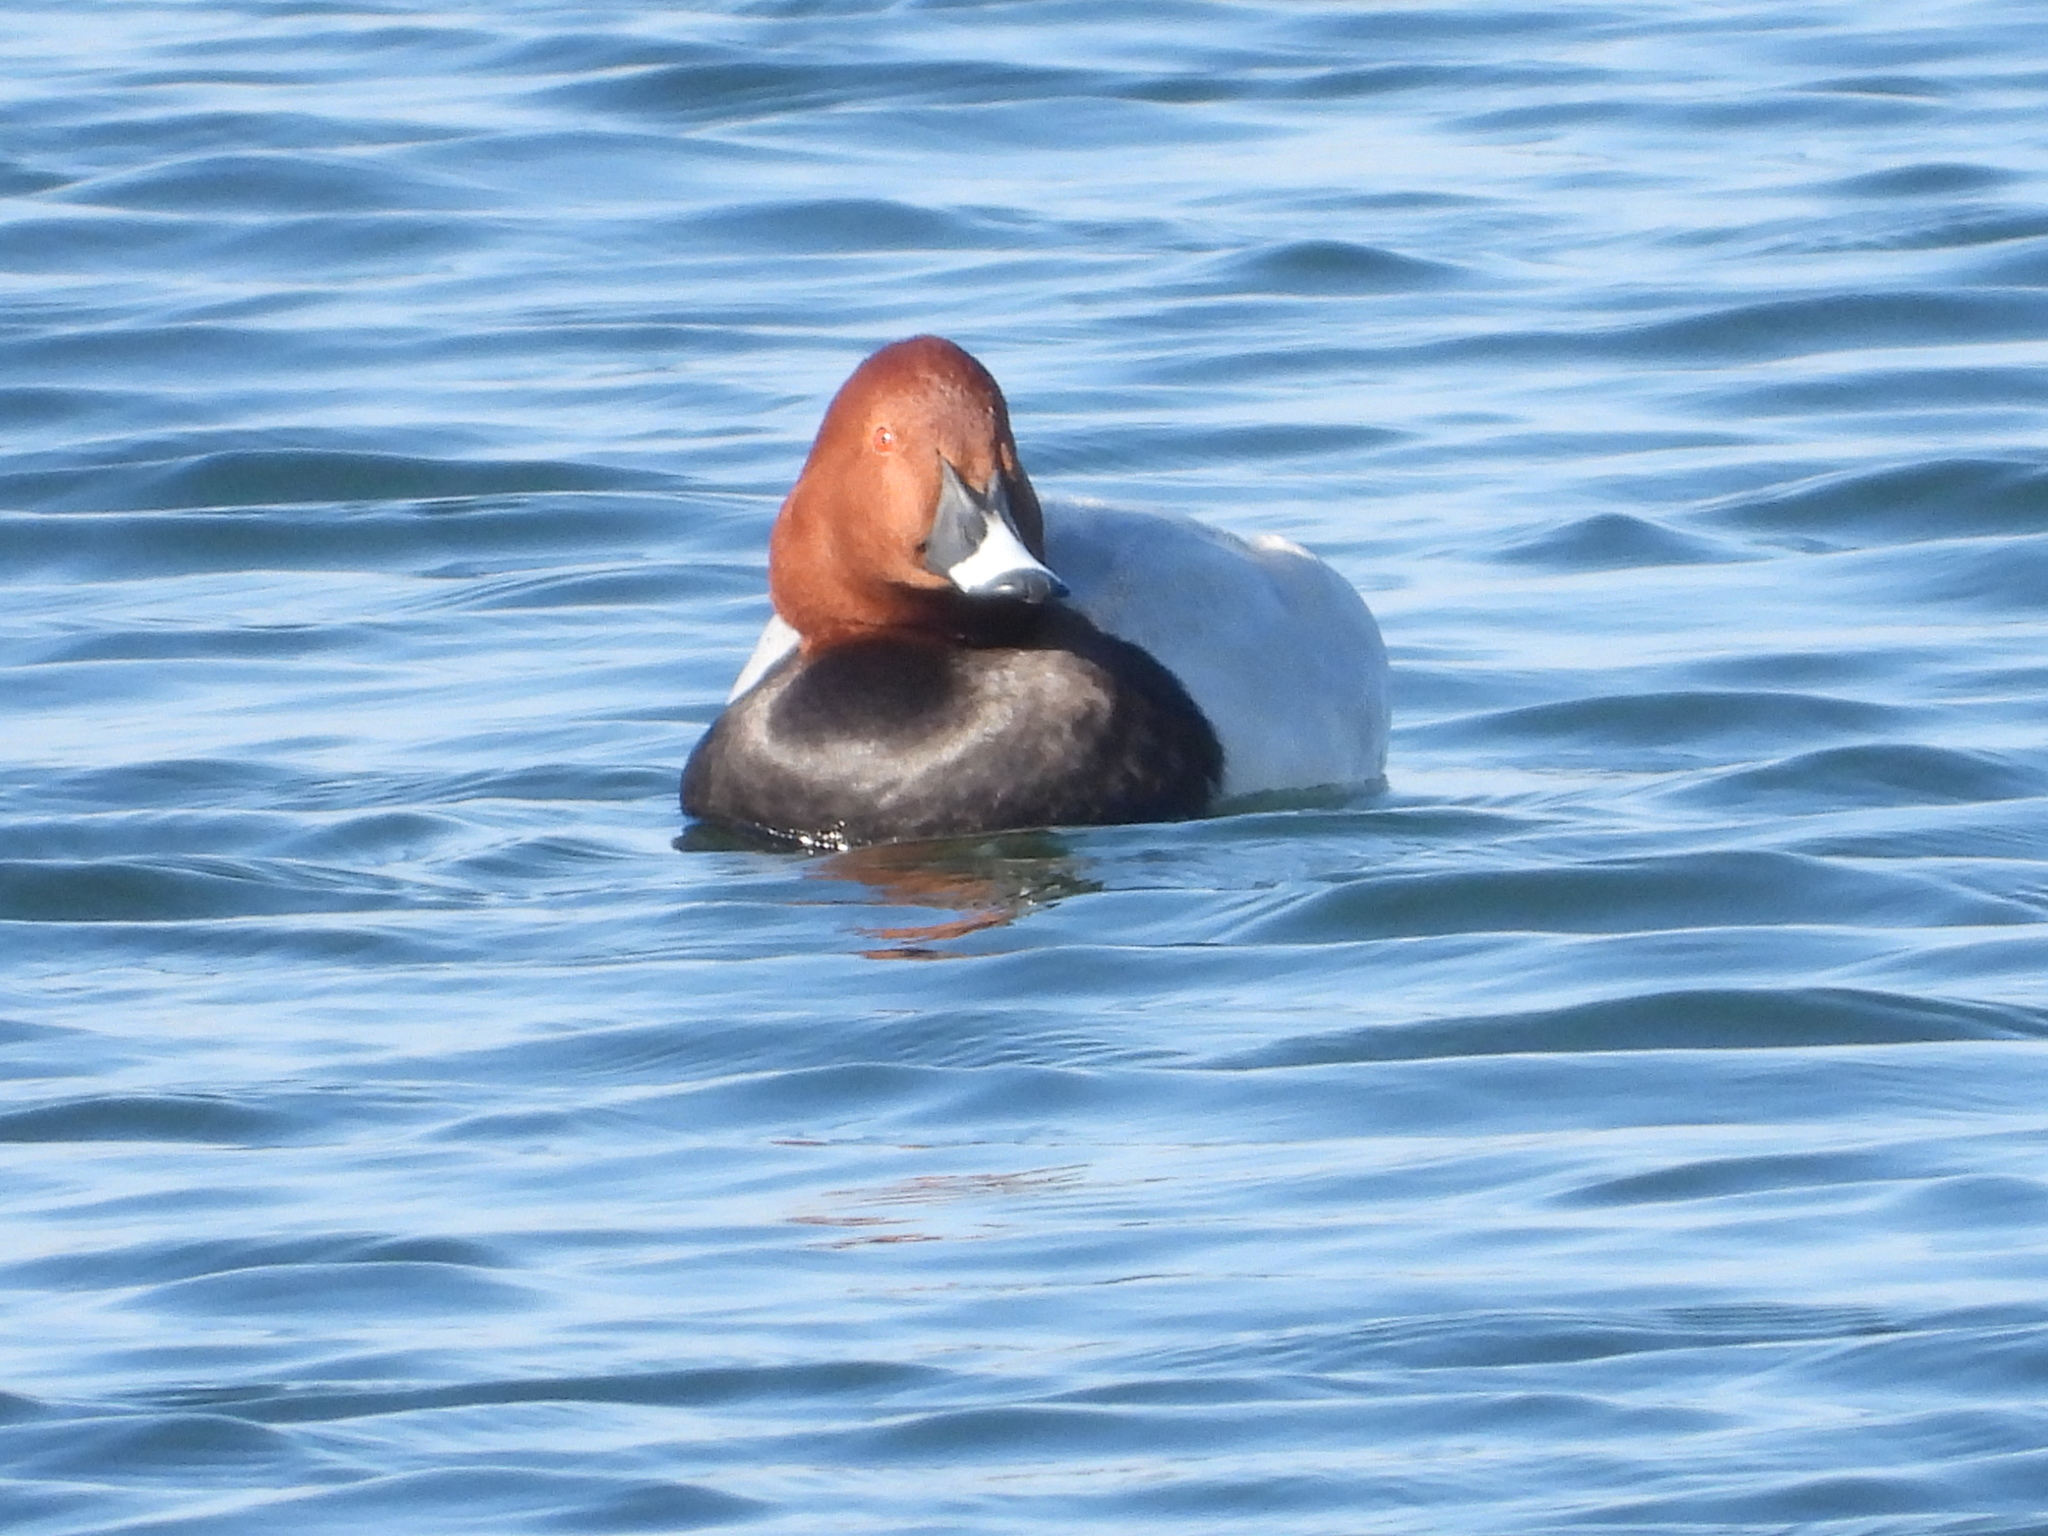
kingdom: Animalia
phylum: Chordata
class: Aves
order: Anseriformes
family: Anatidae
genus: Aythya
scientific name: Aythya ferina
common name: Common pochard
